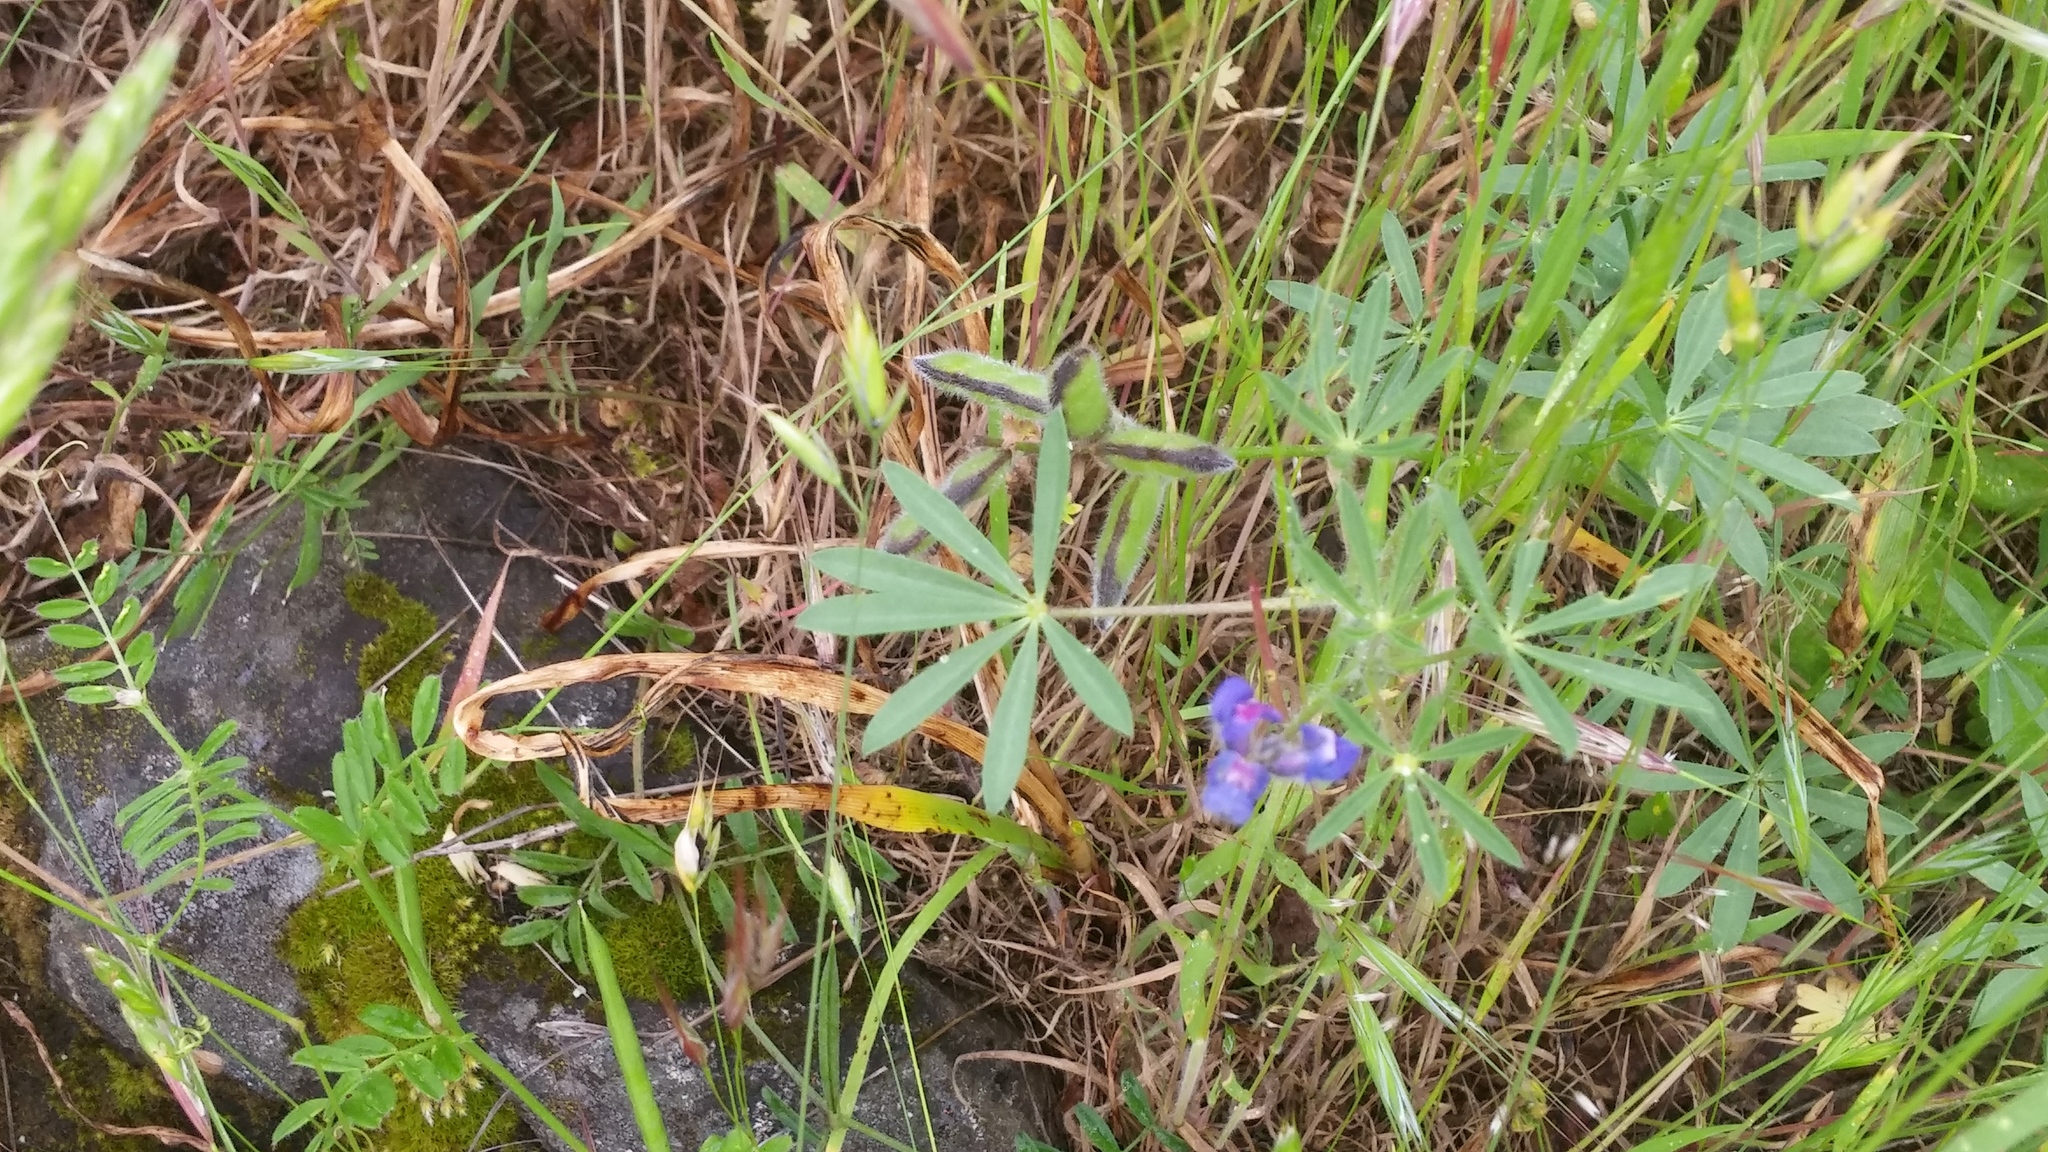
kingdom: Plantae
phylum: Tracheophyta
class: Magnoliopsida
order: Fabales
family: Fabaceae
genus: Lupinus
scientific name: Lupinus bicolor
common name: Miniature lupine
